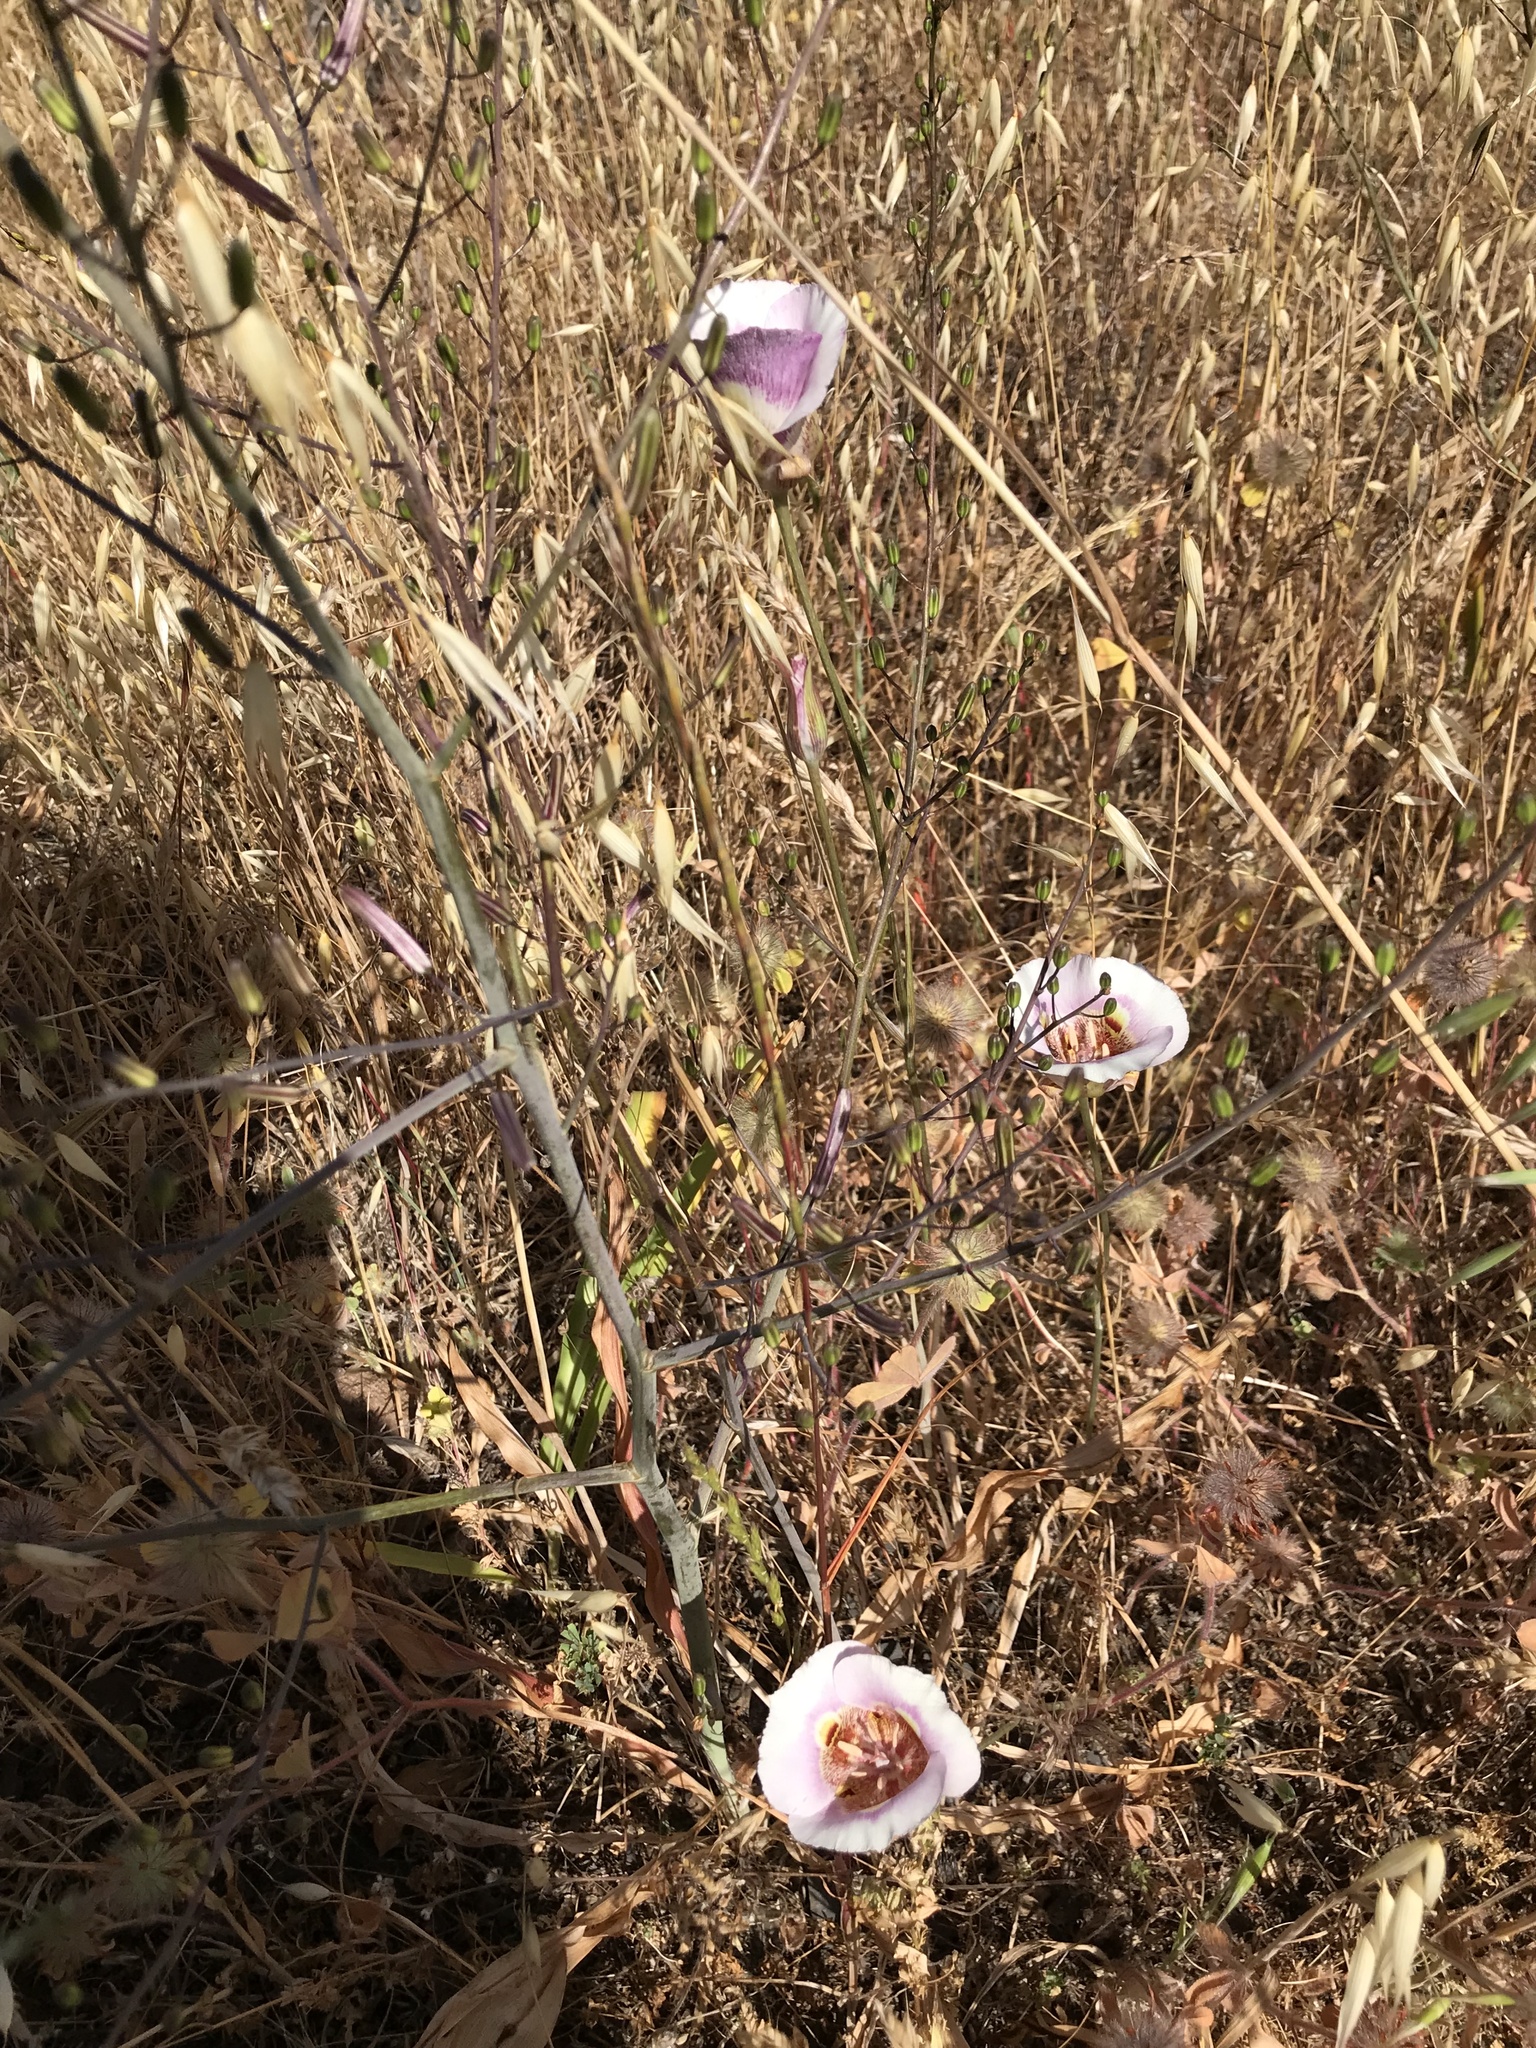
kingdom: Plantae
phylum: Tracheophyta
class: Liliopsida
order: Liliales
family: Liliaceae
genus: Calochortus
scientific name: Calochortus argillosus
